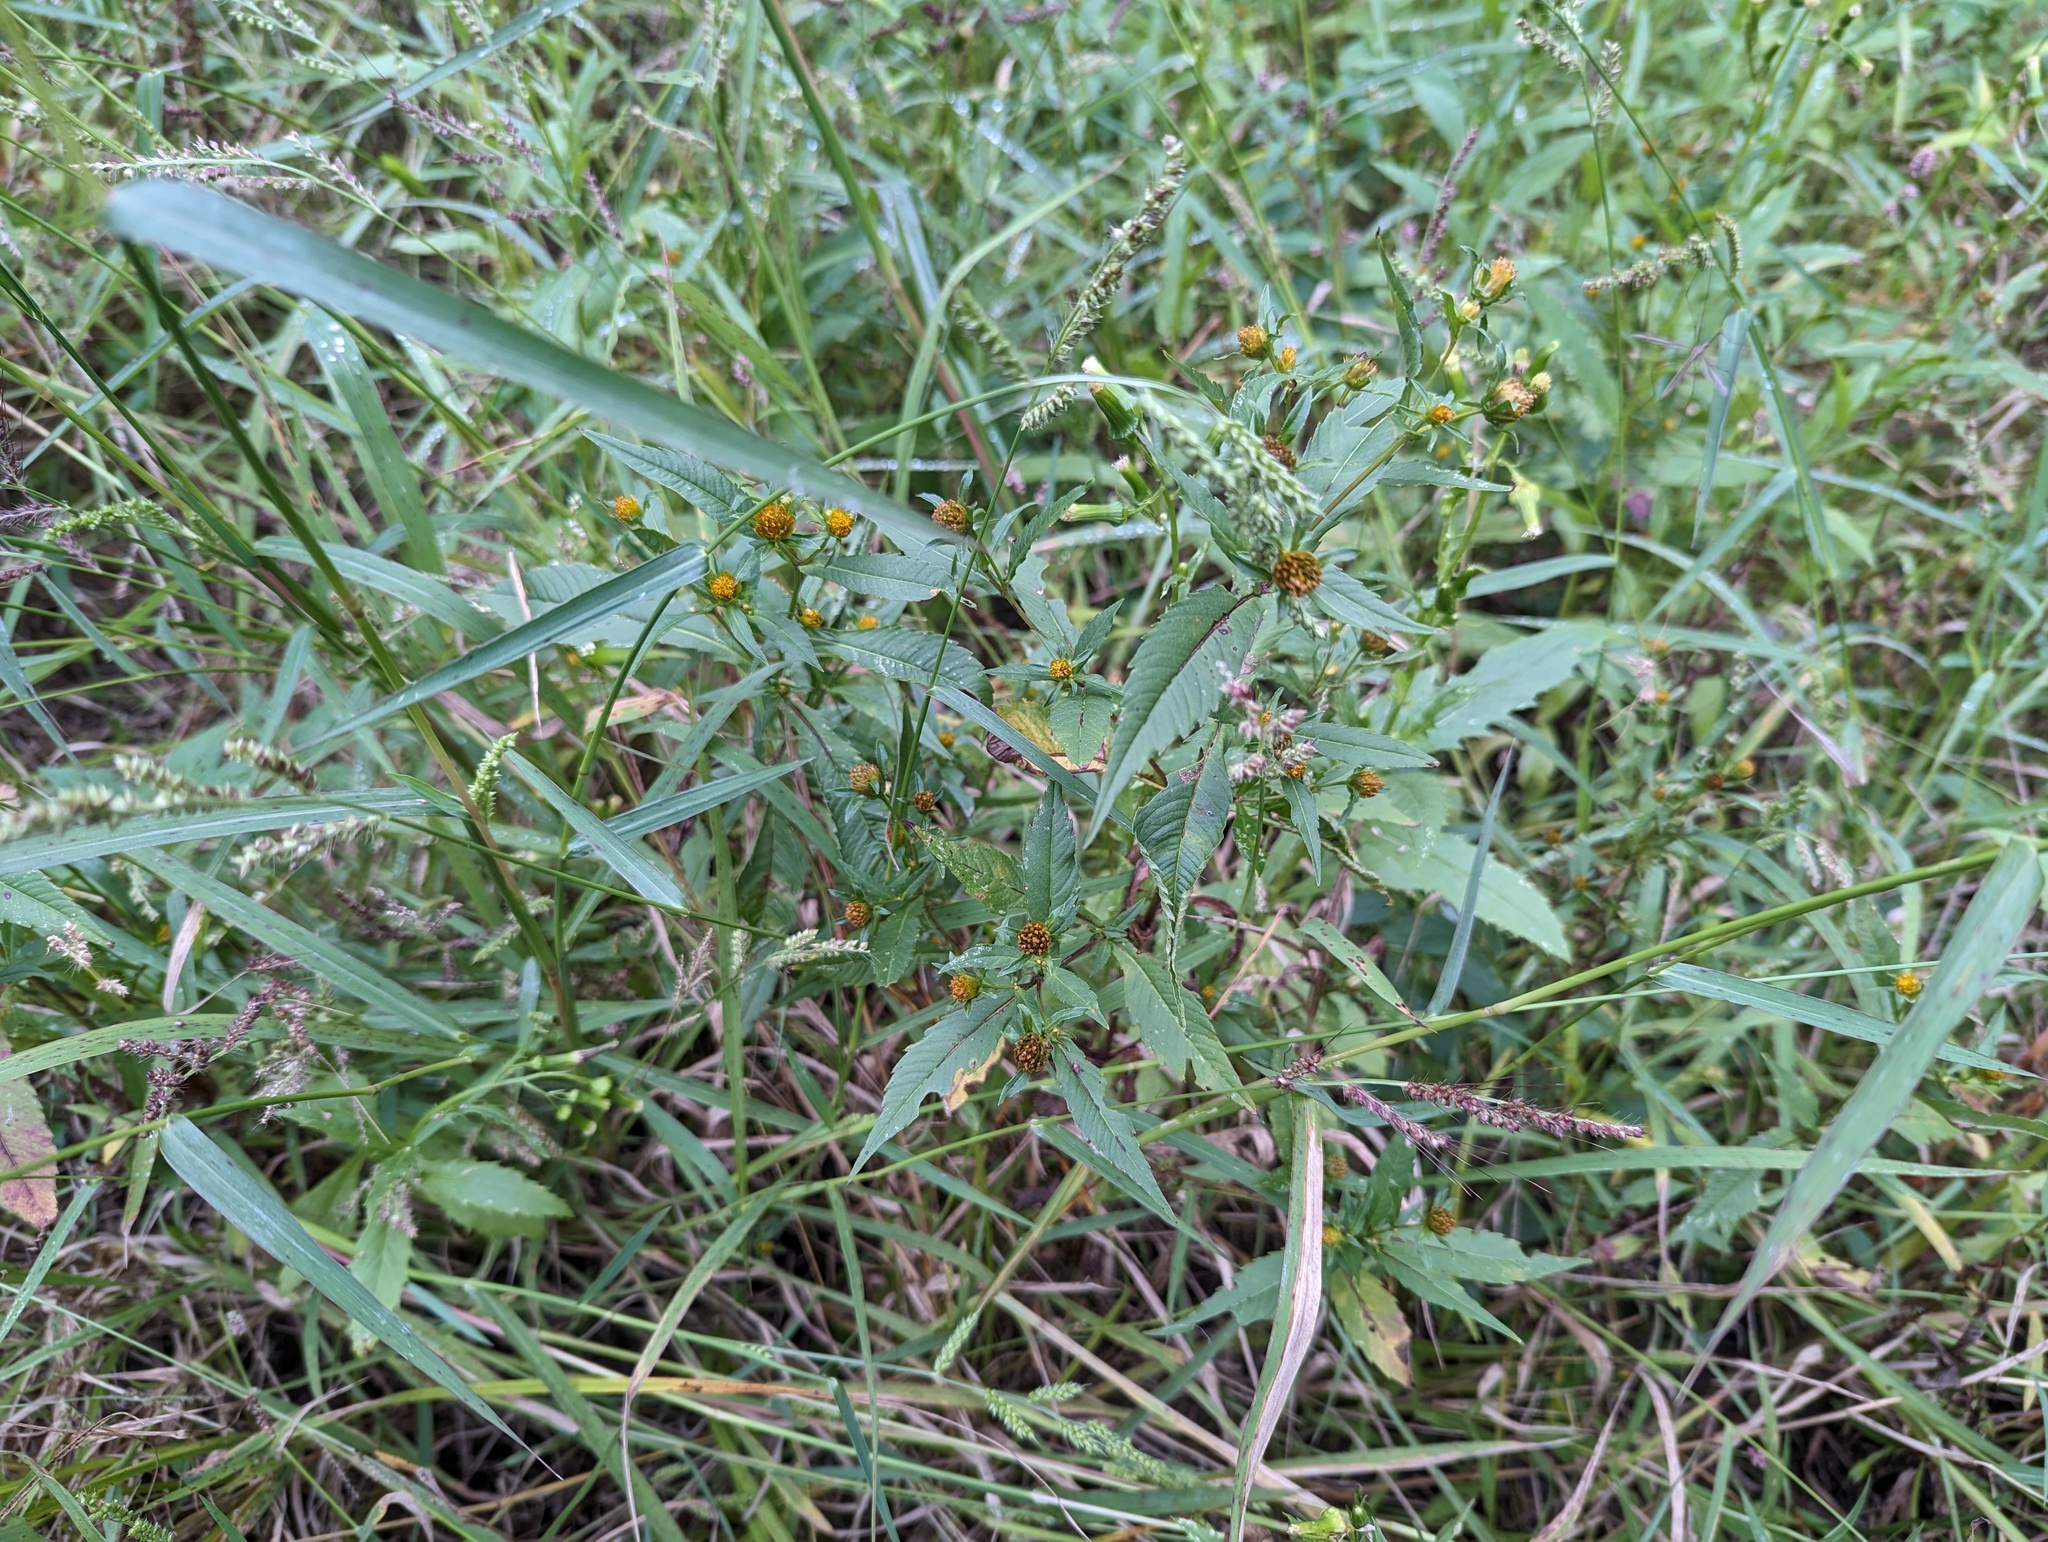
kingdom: Plantae
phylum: Tracheophyta
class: Magnoliopsida
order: Asterales
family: Asteraceae
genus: Bidens
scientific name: Bidens connata
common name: London bur-marigold
